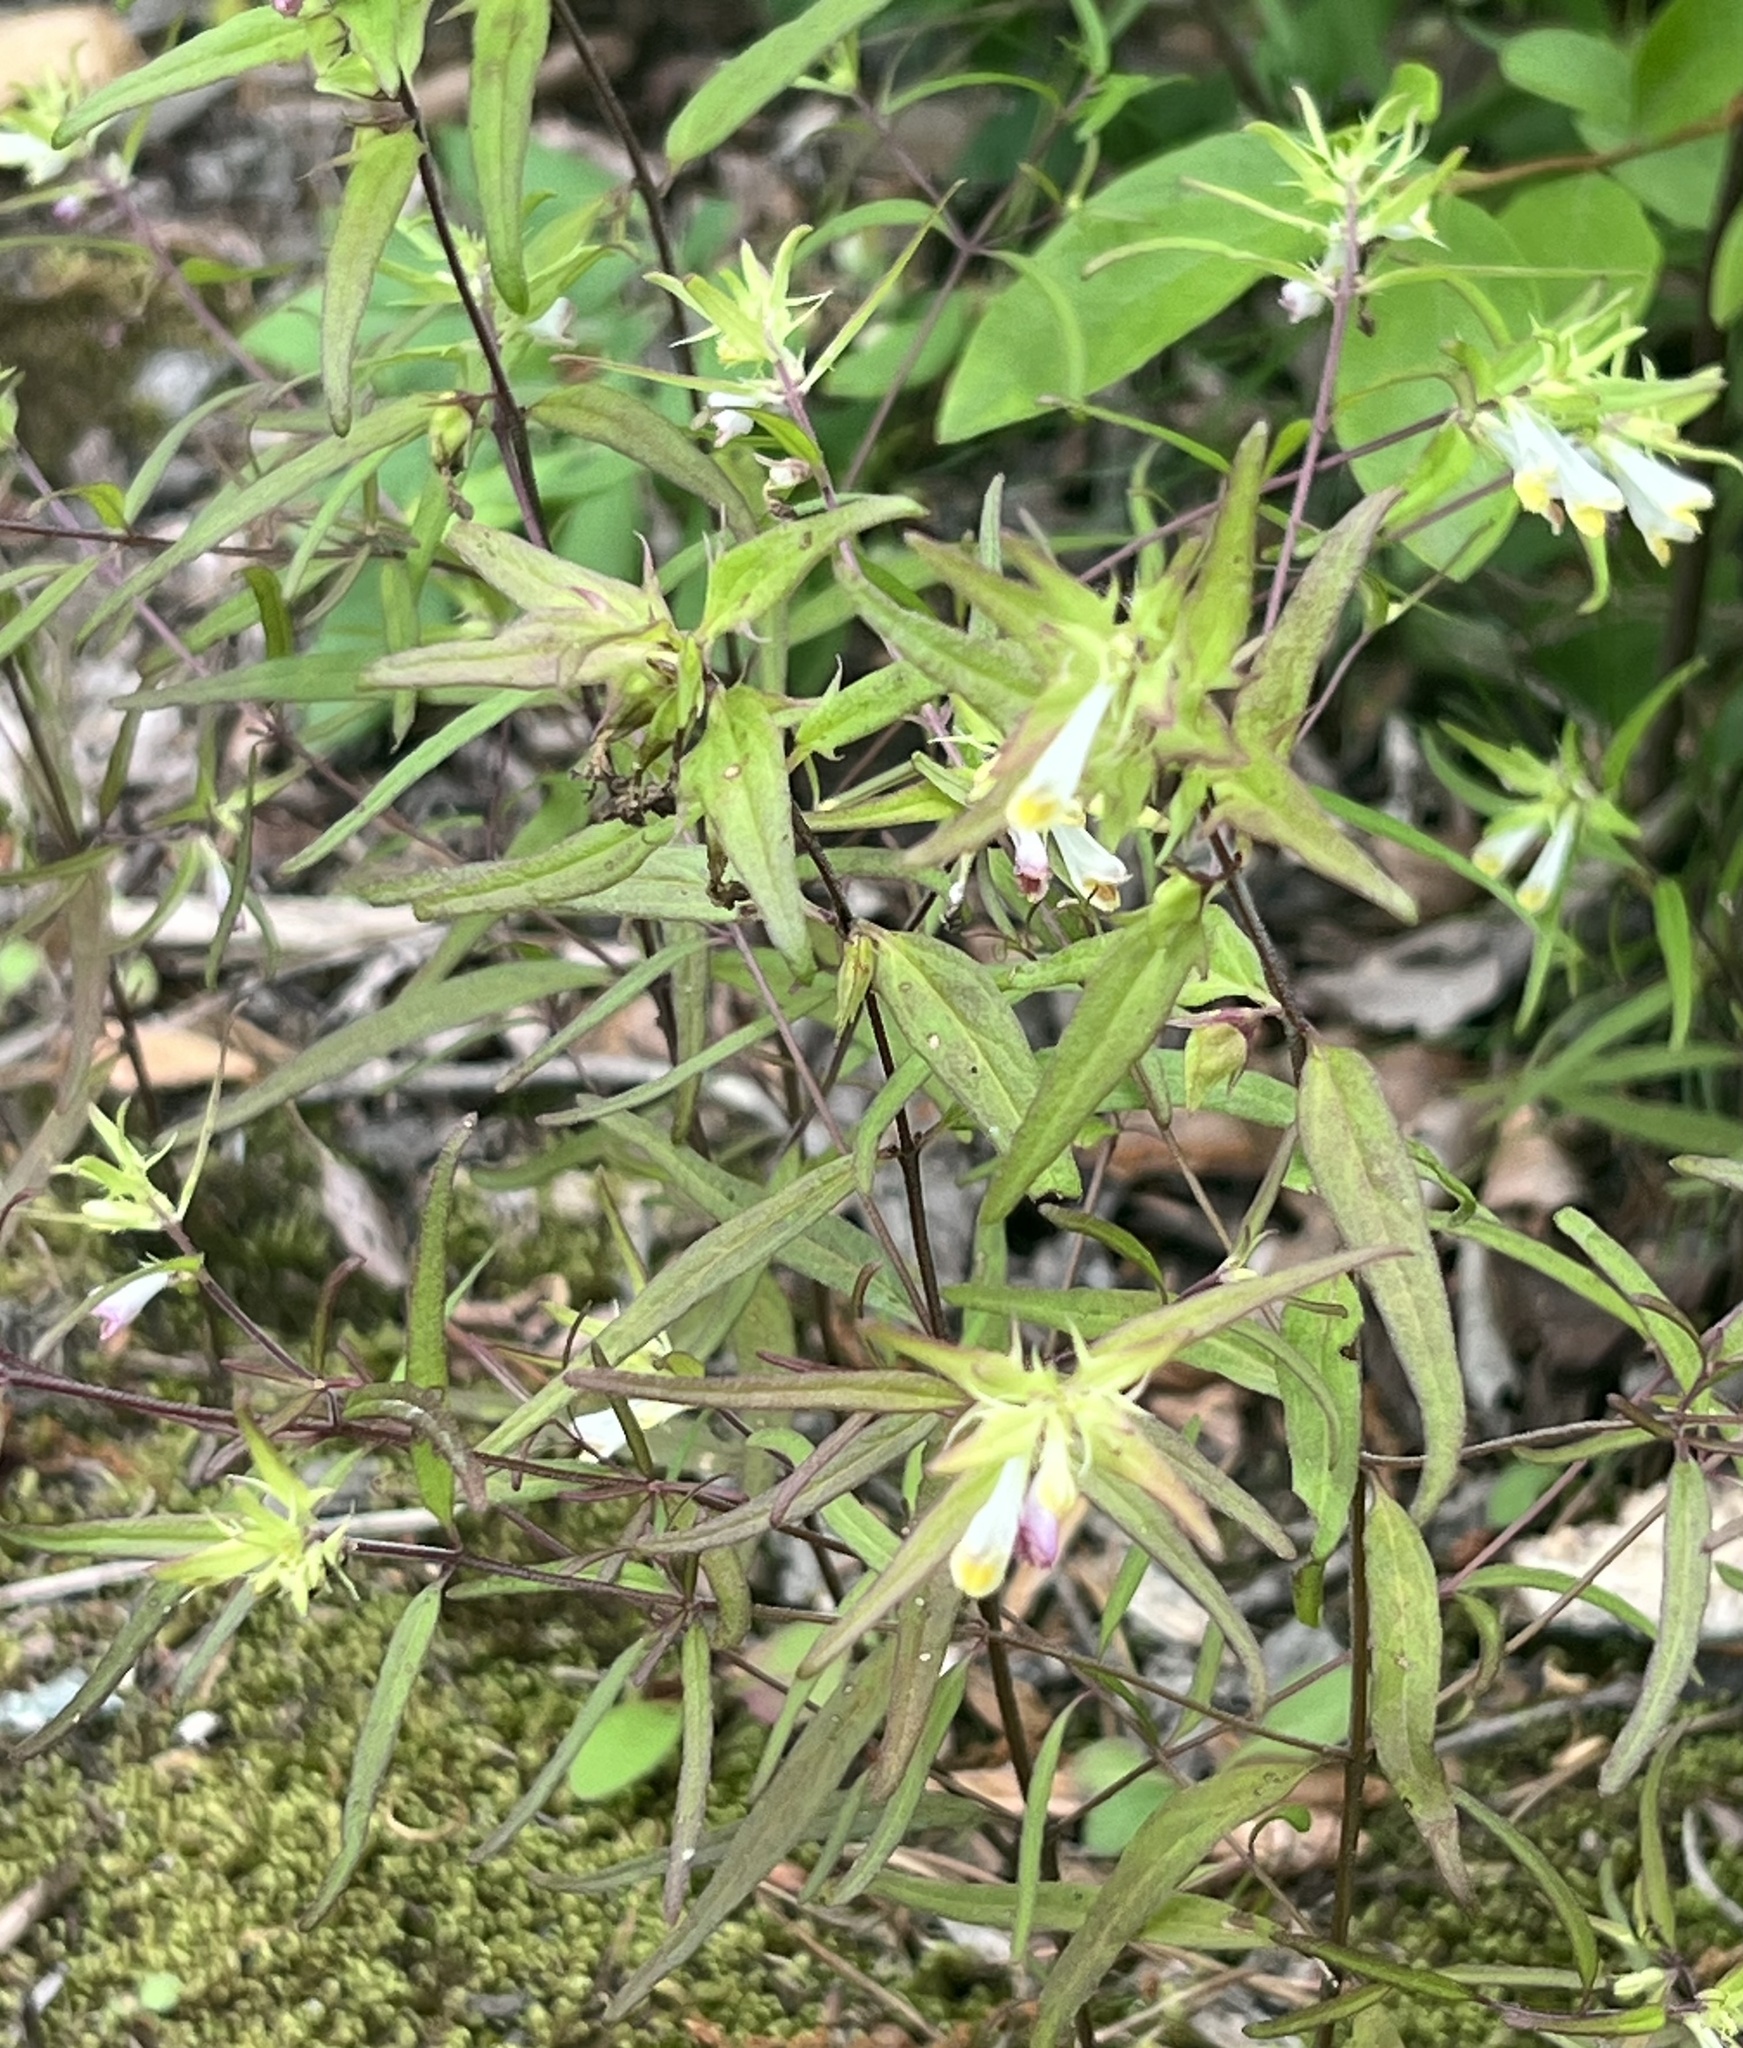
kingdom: Plantae
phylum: Tracheophyta
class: Magnoliopsida
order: Lamiales
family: Orobanchaceae
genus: Melampyrum
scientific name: Melampyrum lineare
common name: American cow-wheat
